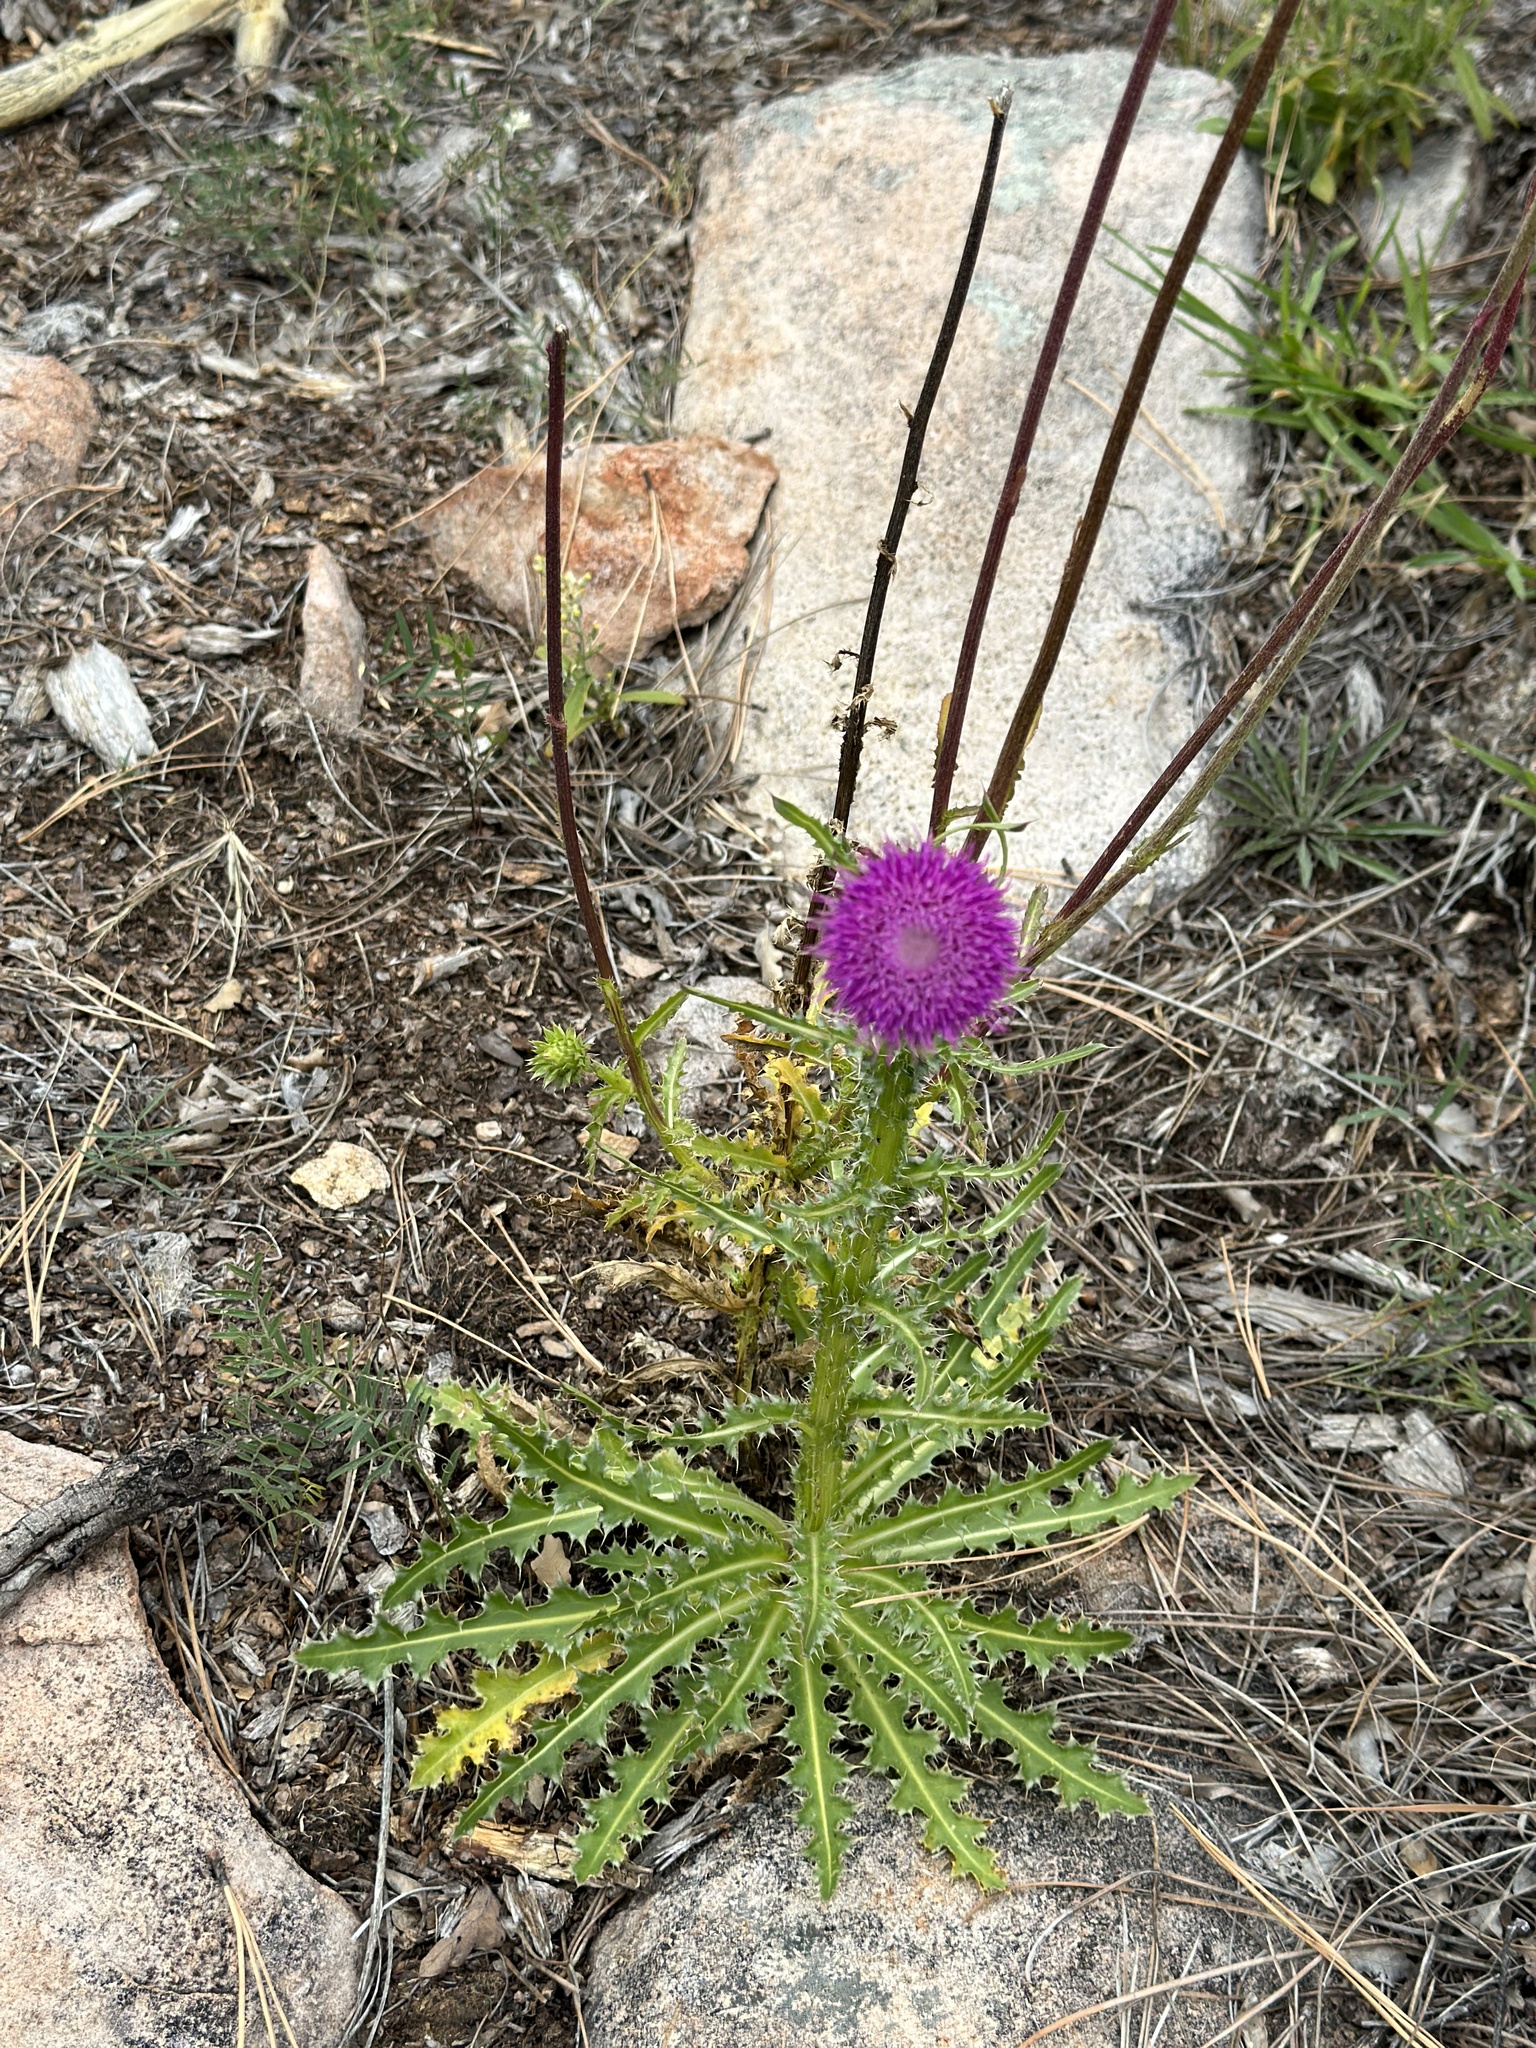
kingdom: Plantae
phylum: Tracheophyta
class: Magnoliopsida
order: Asterales
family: Asteraceae
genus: Carduus
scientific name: Carduus nutans
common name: Musk thistle
